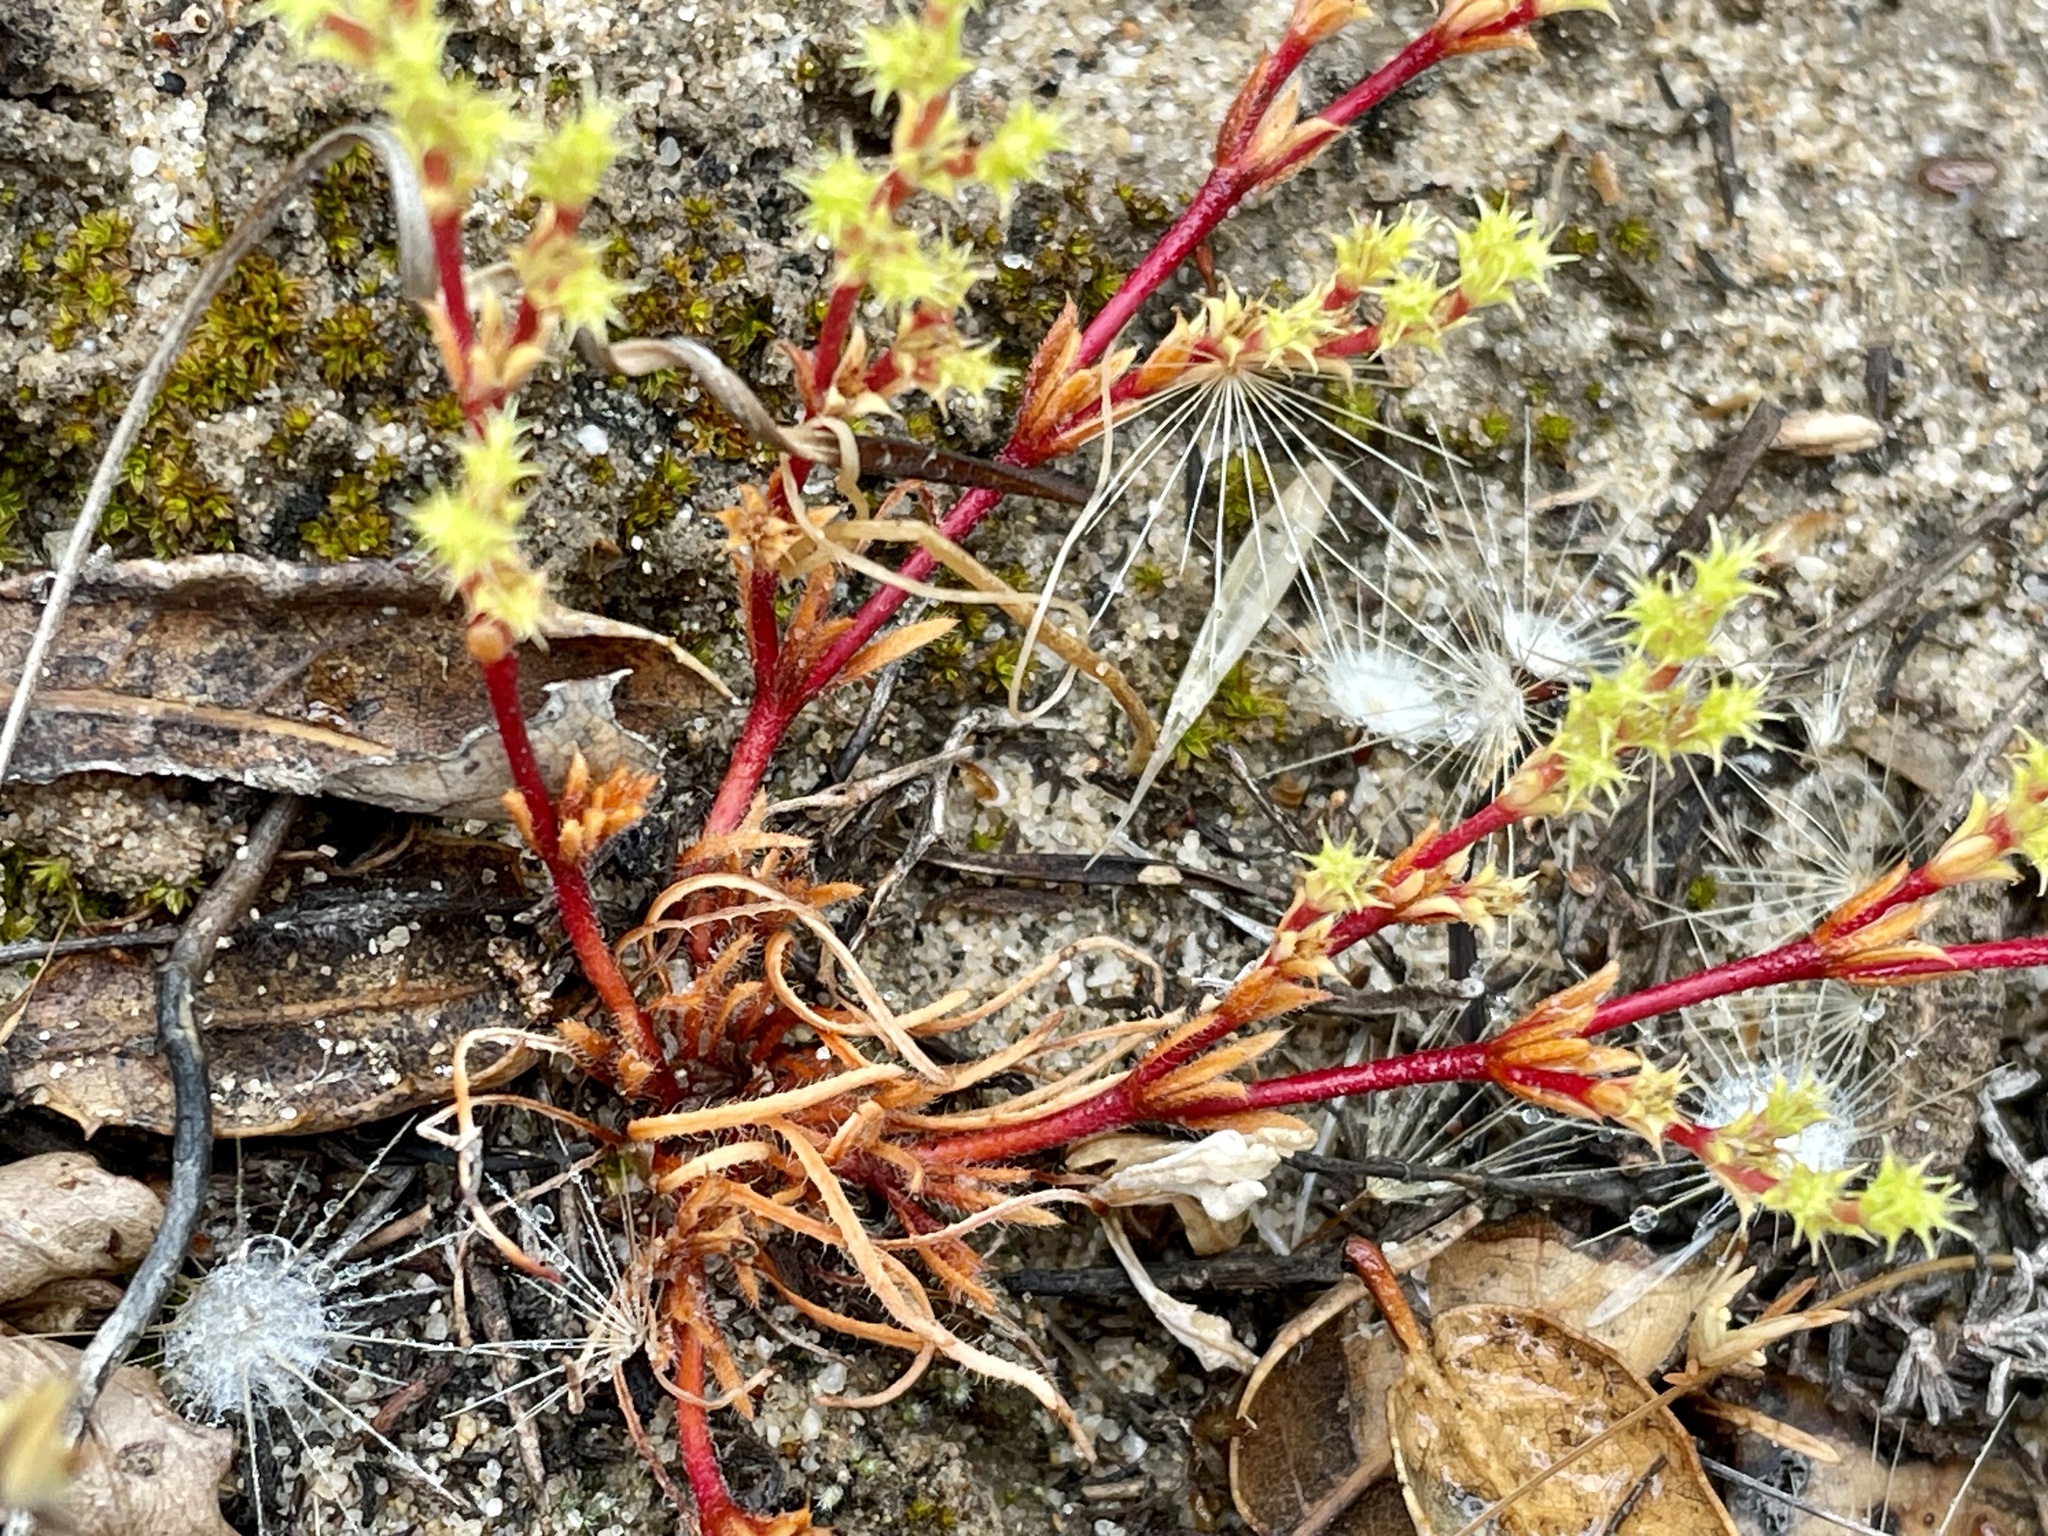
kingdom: Plantae
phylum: Tracheophyta
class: Magnoliopsida
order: Caryophyllales
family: Polygonaceae
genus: Lastarriaea
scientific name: Lastarriaea coriacea
